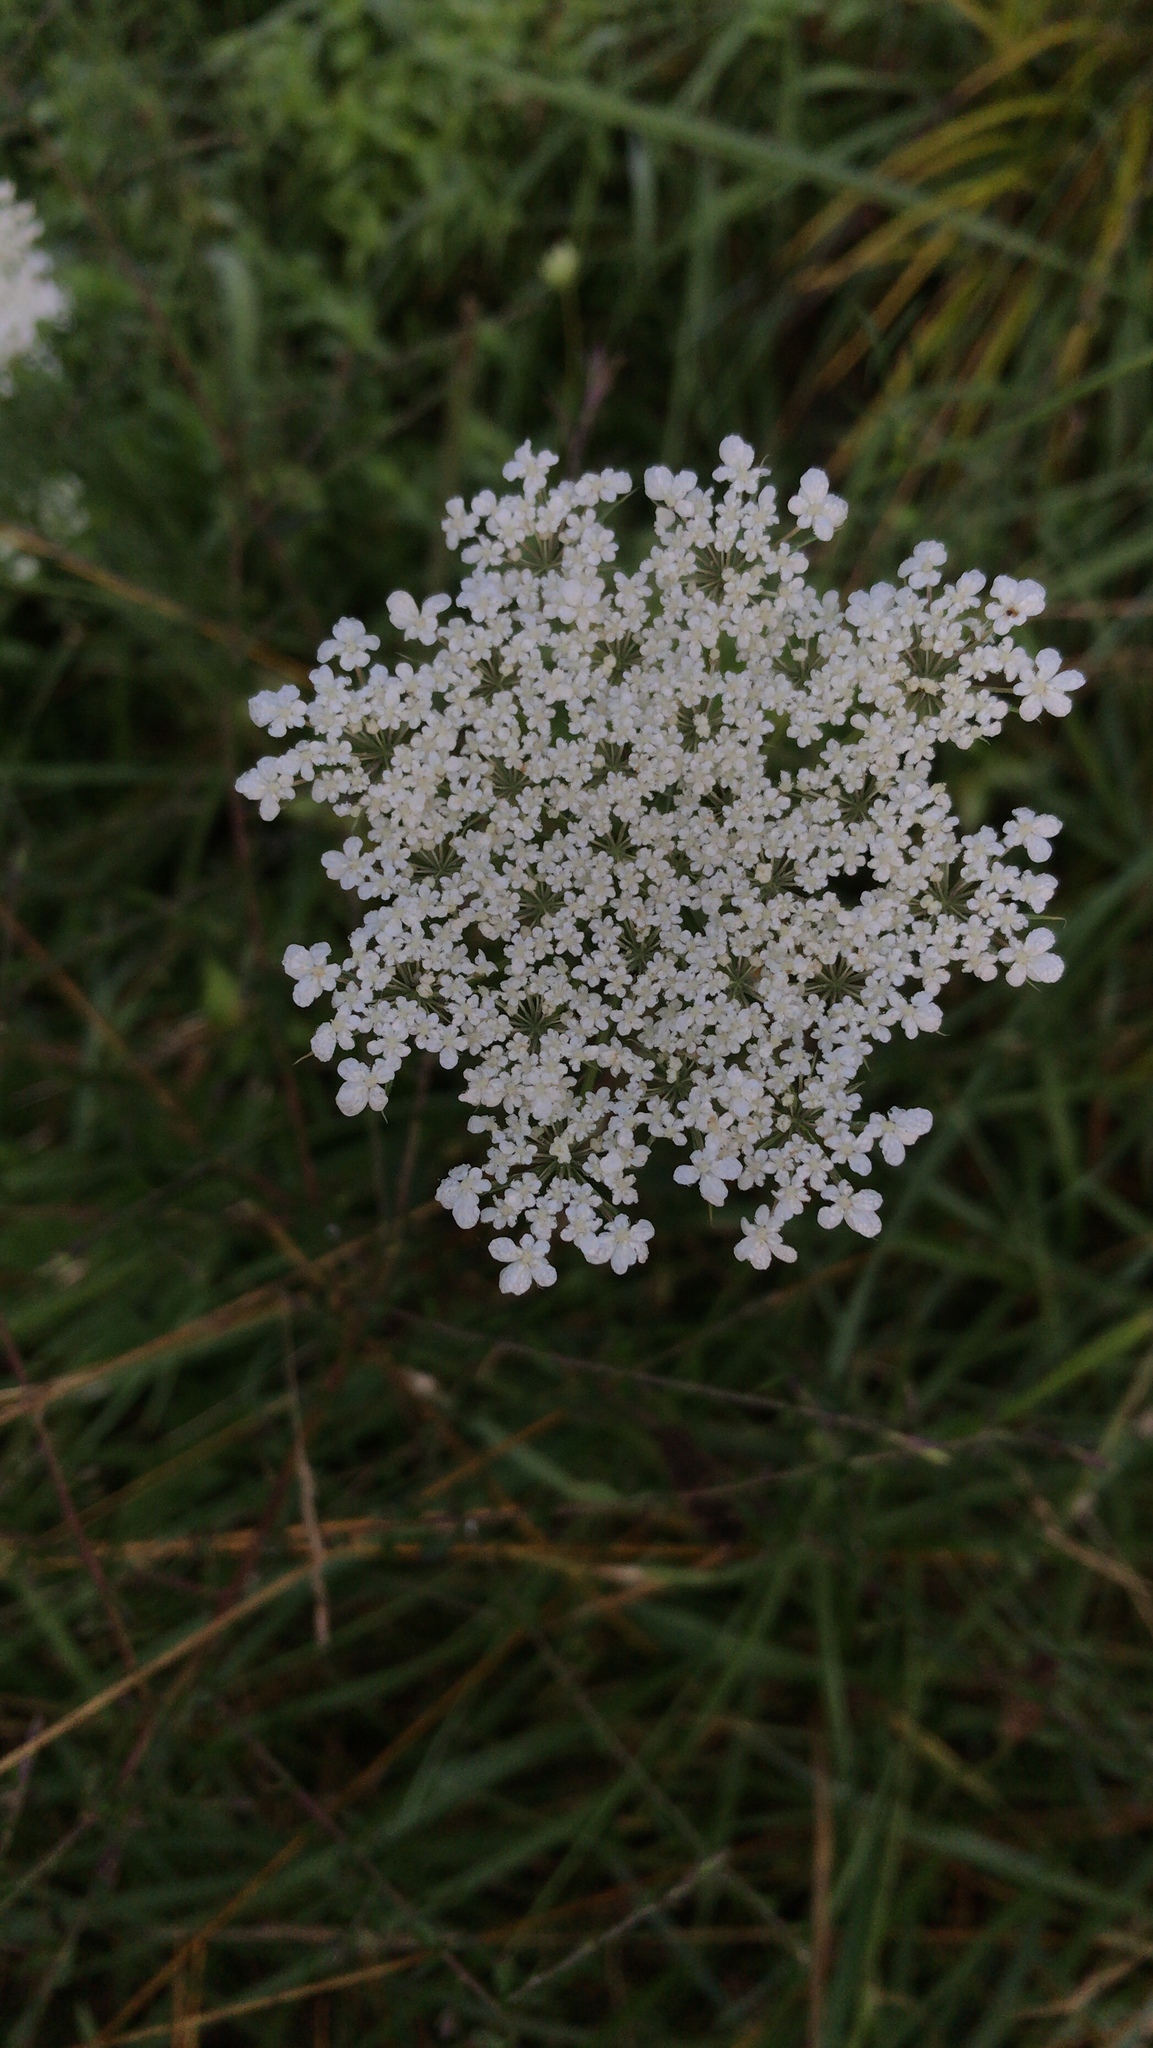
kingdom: Plantae
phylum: Tracheophyta
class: Magnoliopsida
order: Apiales
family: Apiaceae
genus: Daucus
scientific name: Daucus carota
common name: Wild carrot
